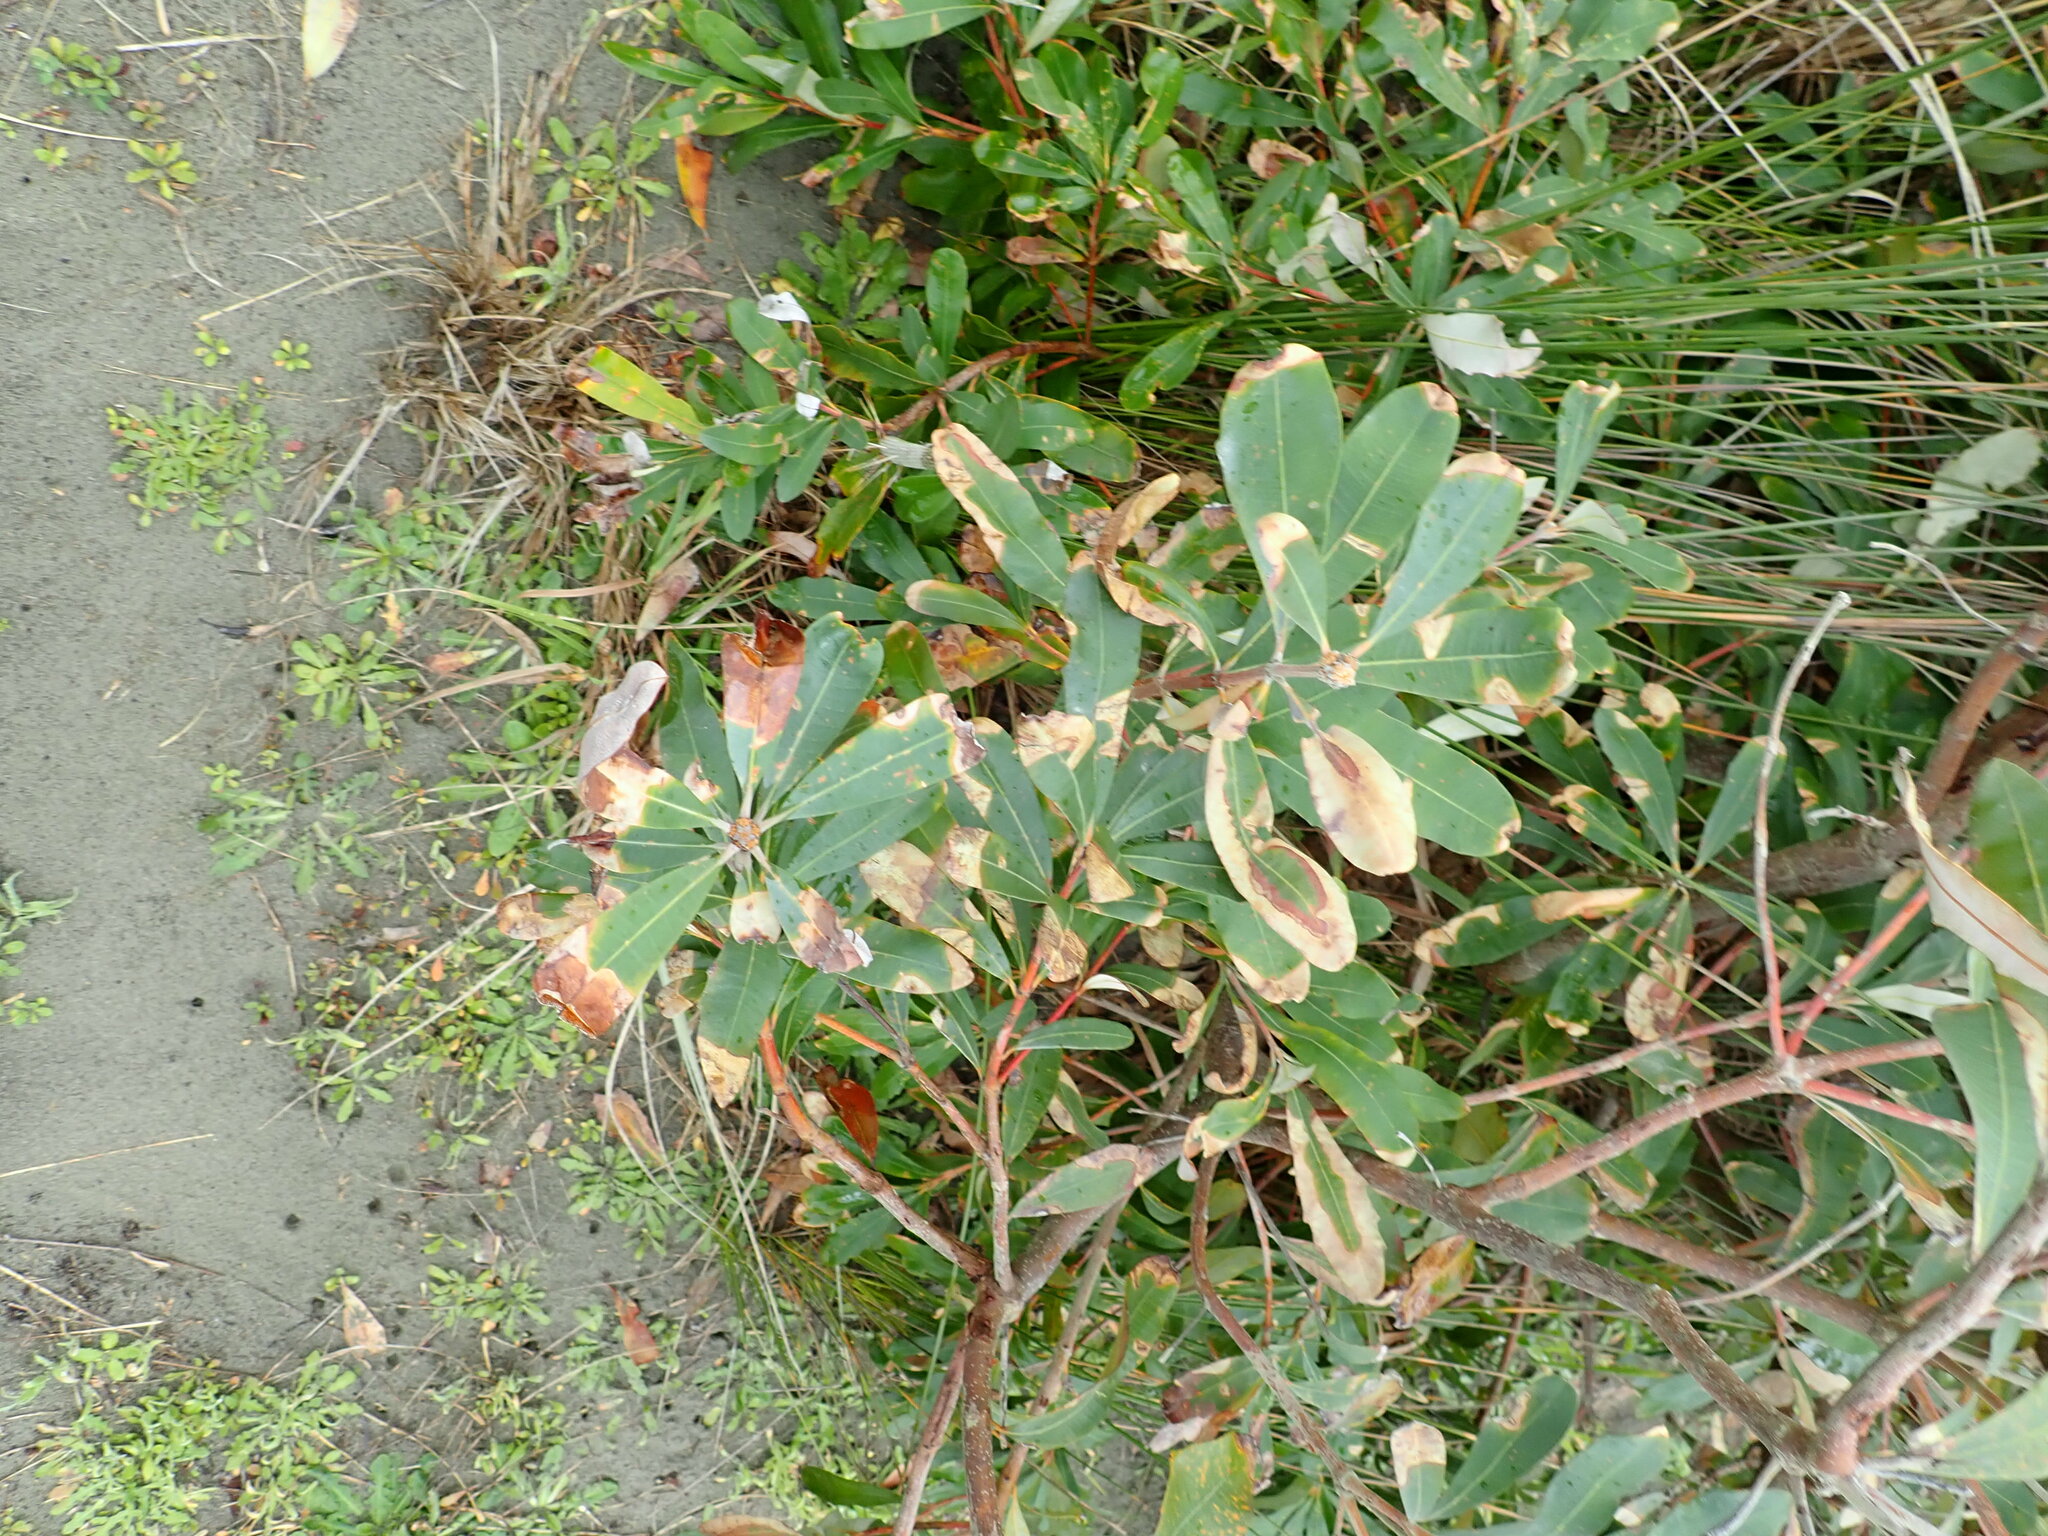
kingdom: Plantae
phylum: Tracheophyta
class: Magnoliopsida
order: Proteales
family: Proteaceae
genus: Banksia
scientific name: Banksia integrifolia
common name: White-honeysuckle
